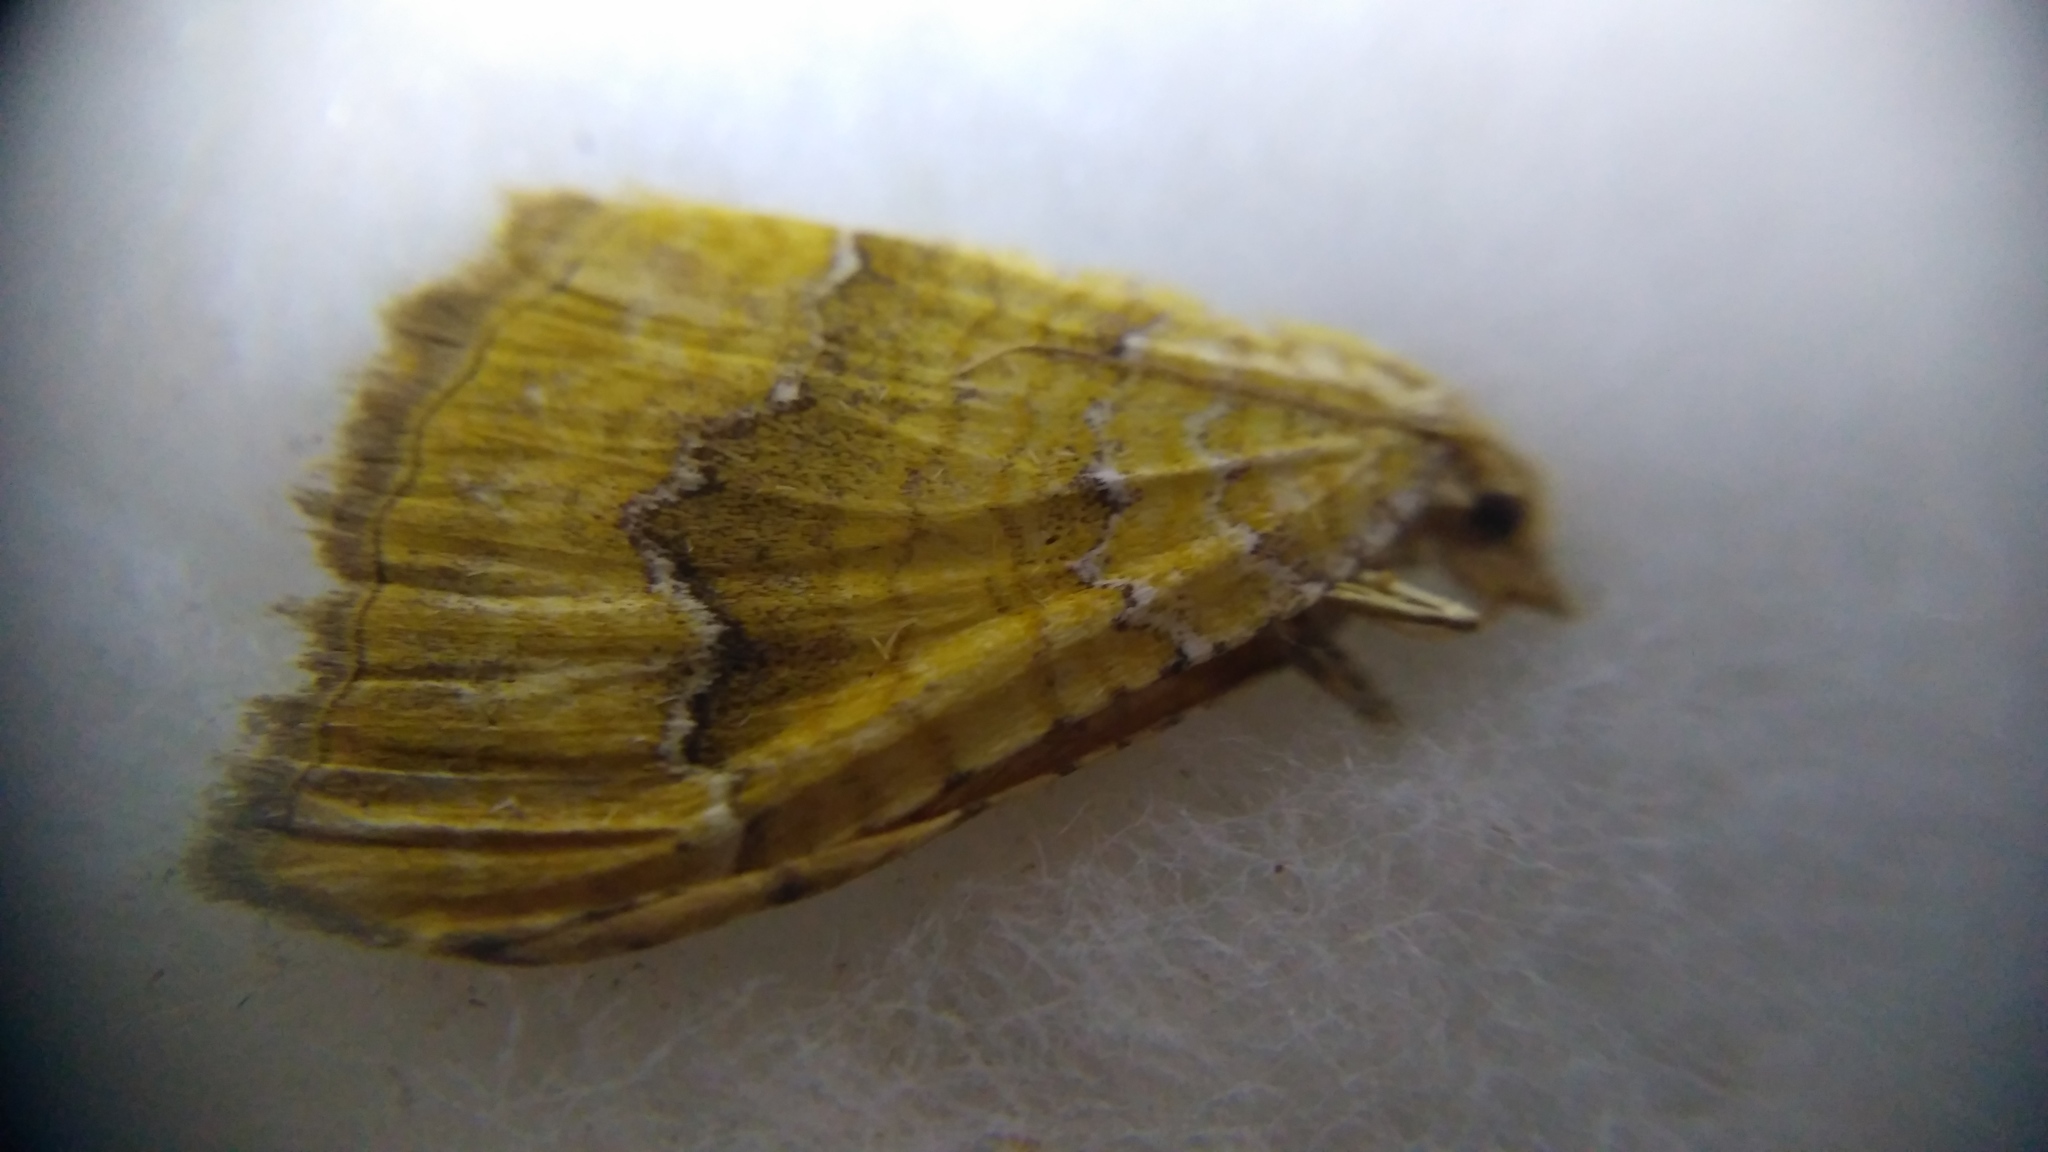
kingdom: Animalia
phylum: Arthropoda
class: Insecta
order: Lepidoptera
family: Geometridae
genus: Camptogramma
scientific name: Camptogramma bilineata
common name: Yellow shell
